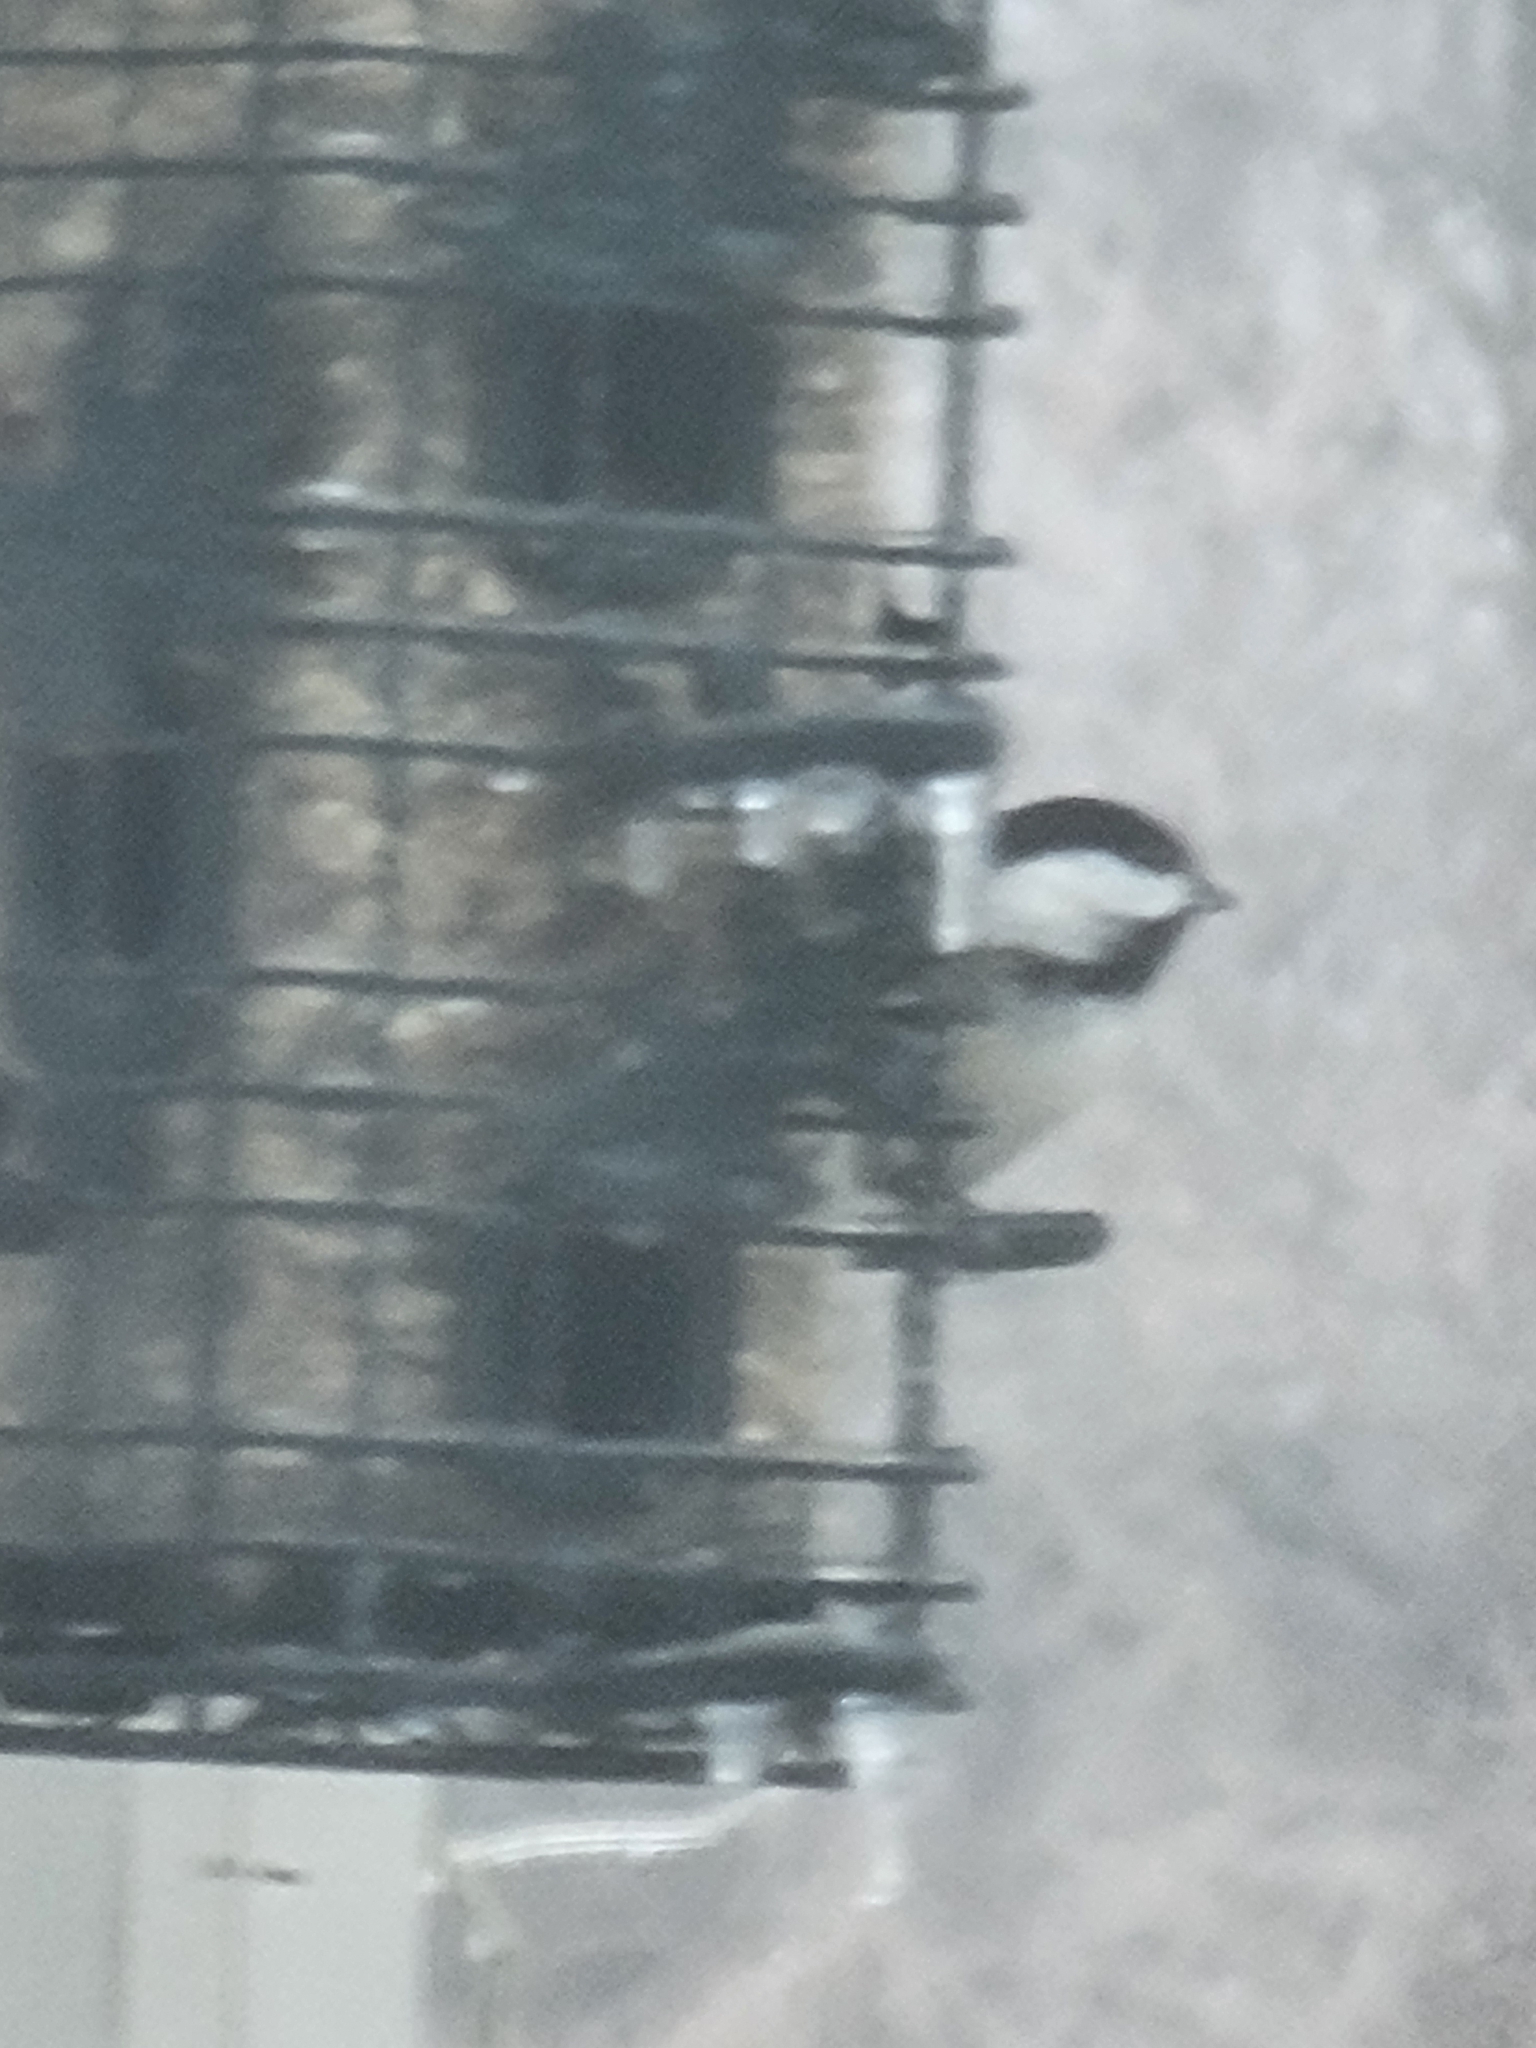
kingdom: Animalia
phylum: Chordata
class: Aves
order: Passeriformes
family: Paridae
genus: Poecile
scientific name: Poecile atricapillus
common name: Black-capped chickadee
